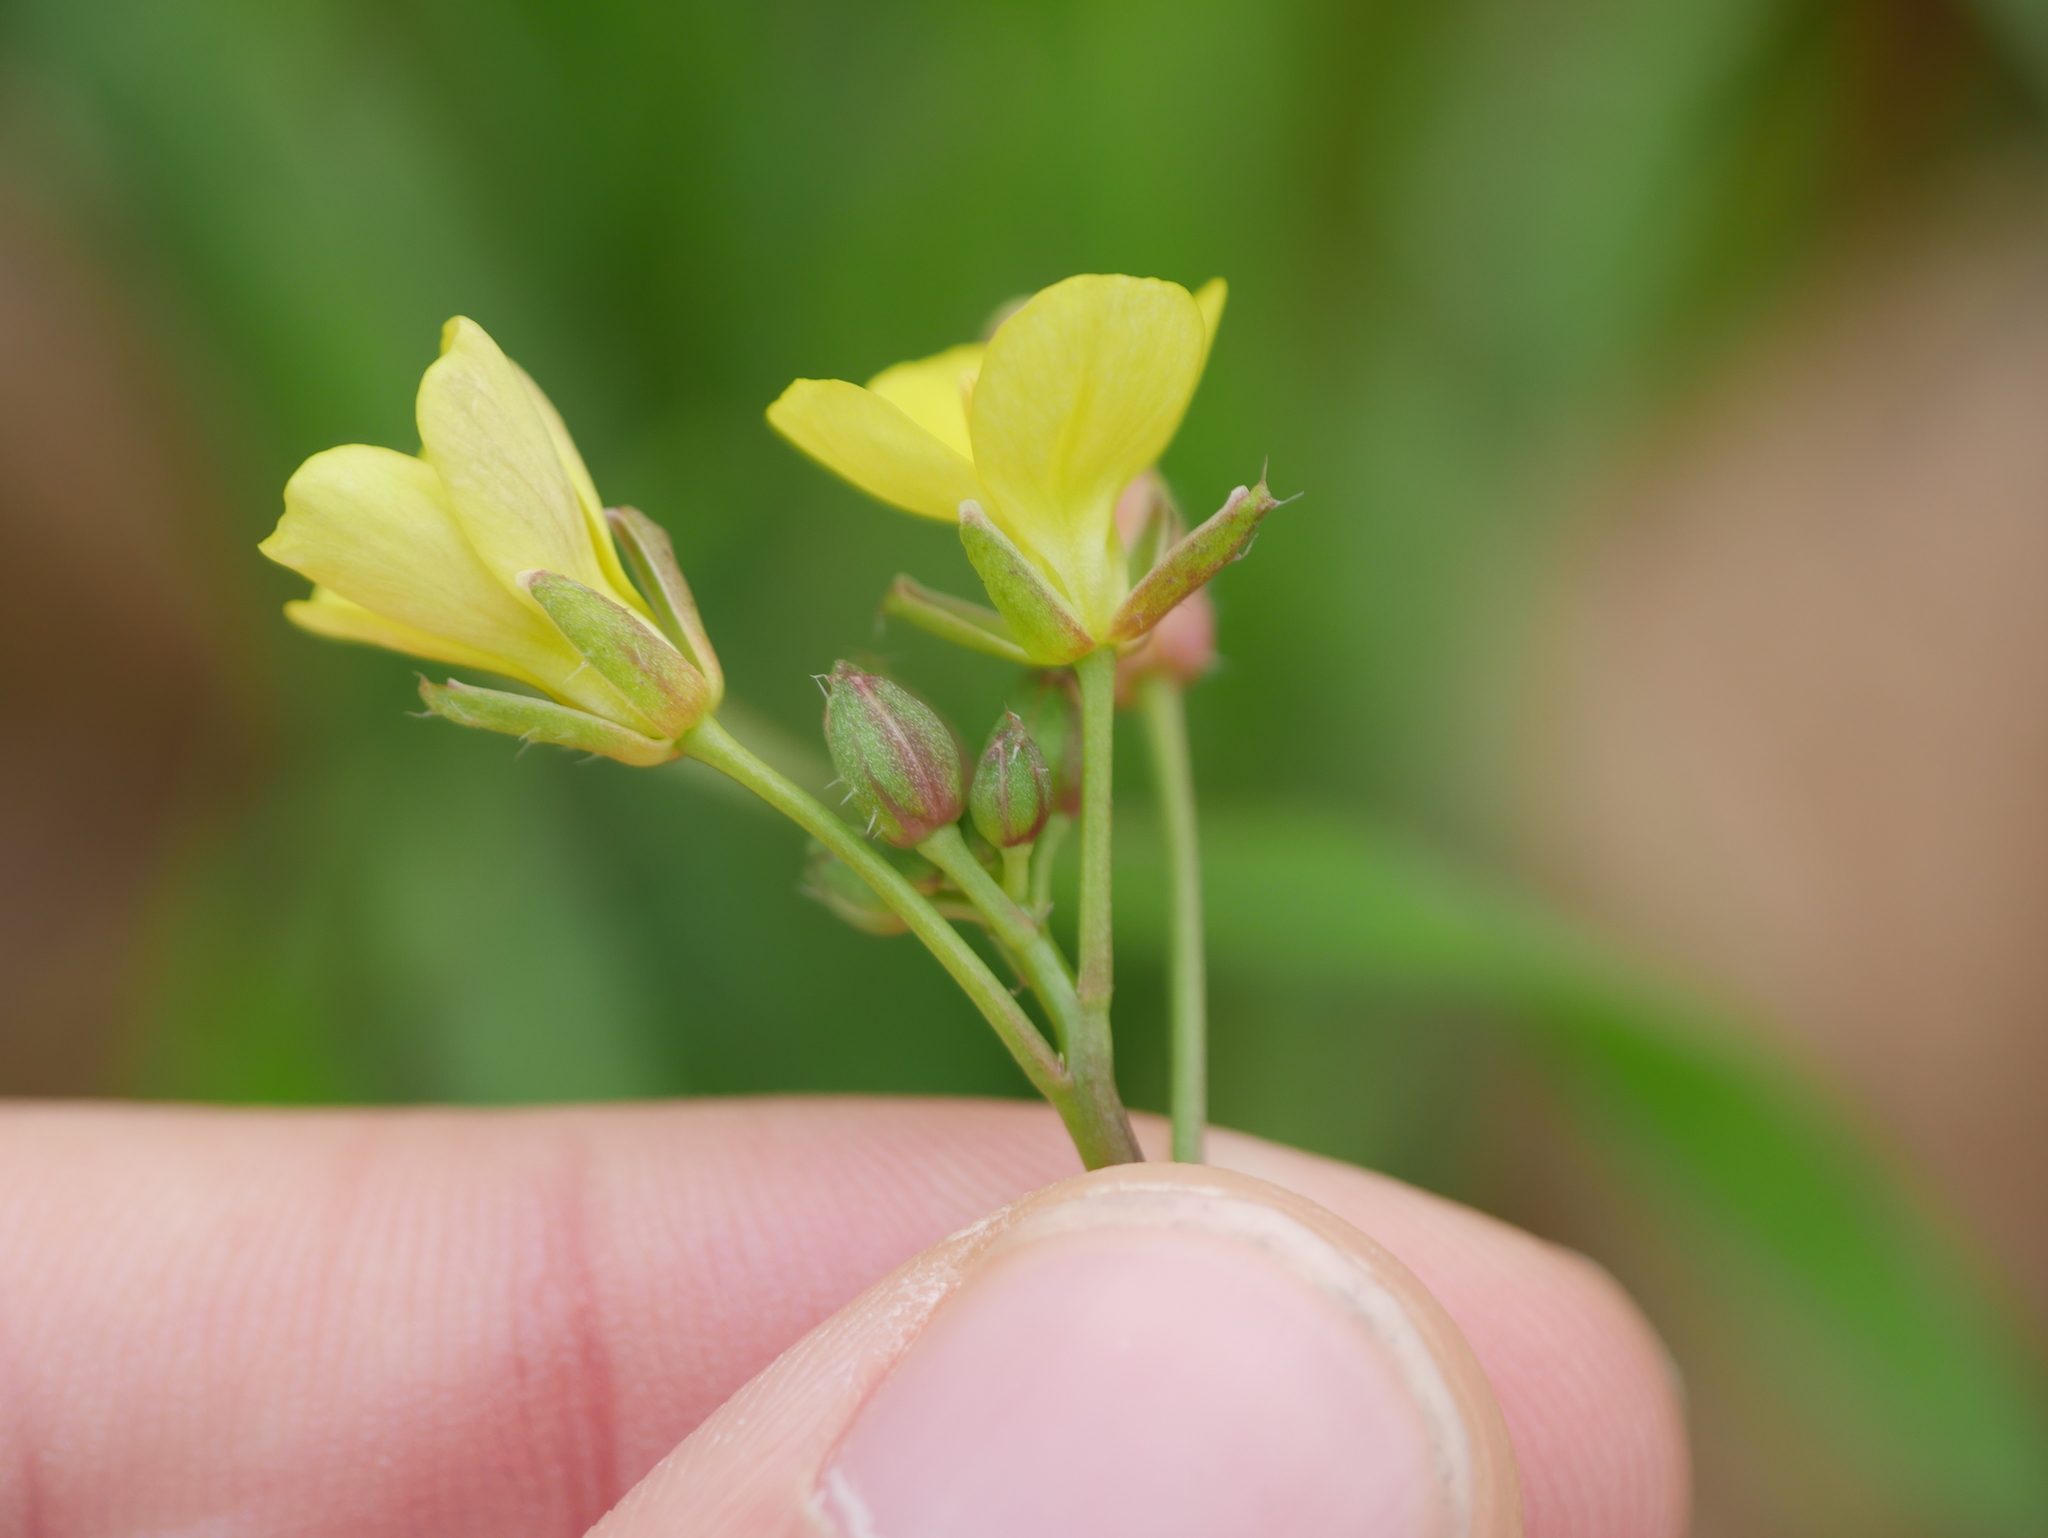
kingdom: Plantae
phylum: Tracheophyta
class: Magnoliopsida
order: Brassicales
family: Brassicaceae
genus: Diplotaxis
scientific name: Diplotaxis muralis
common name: Annual wall-rocket
